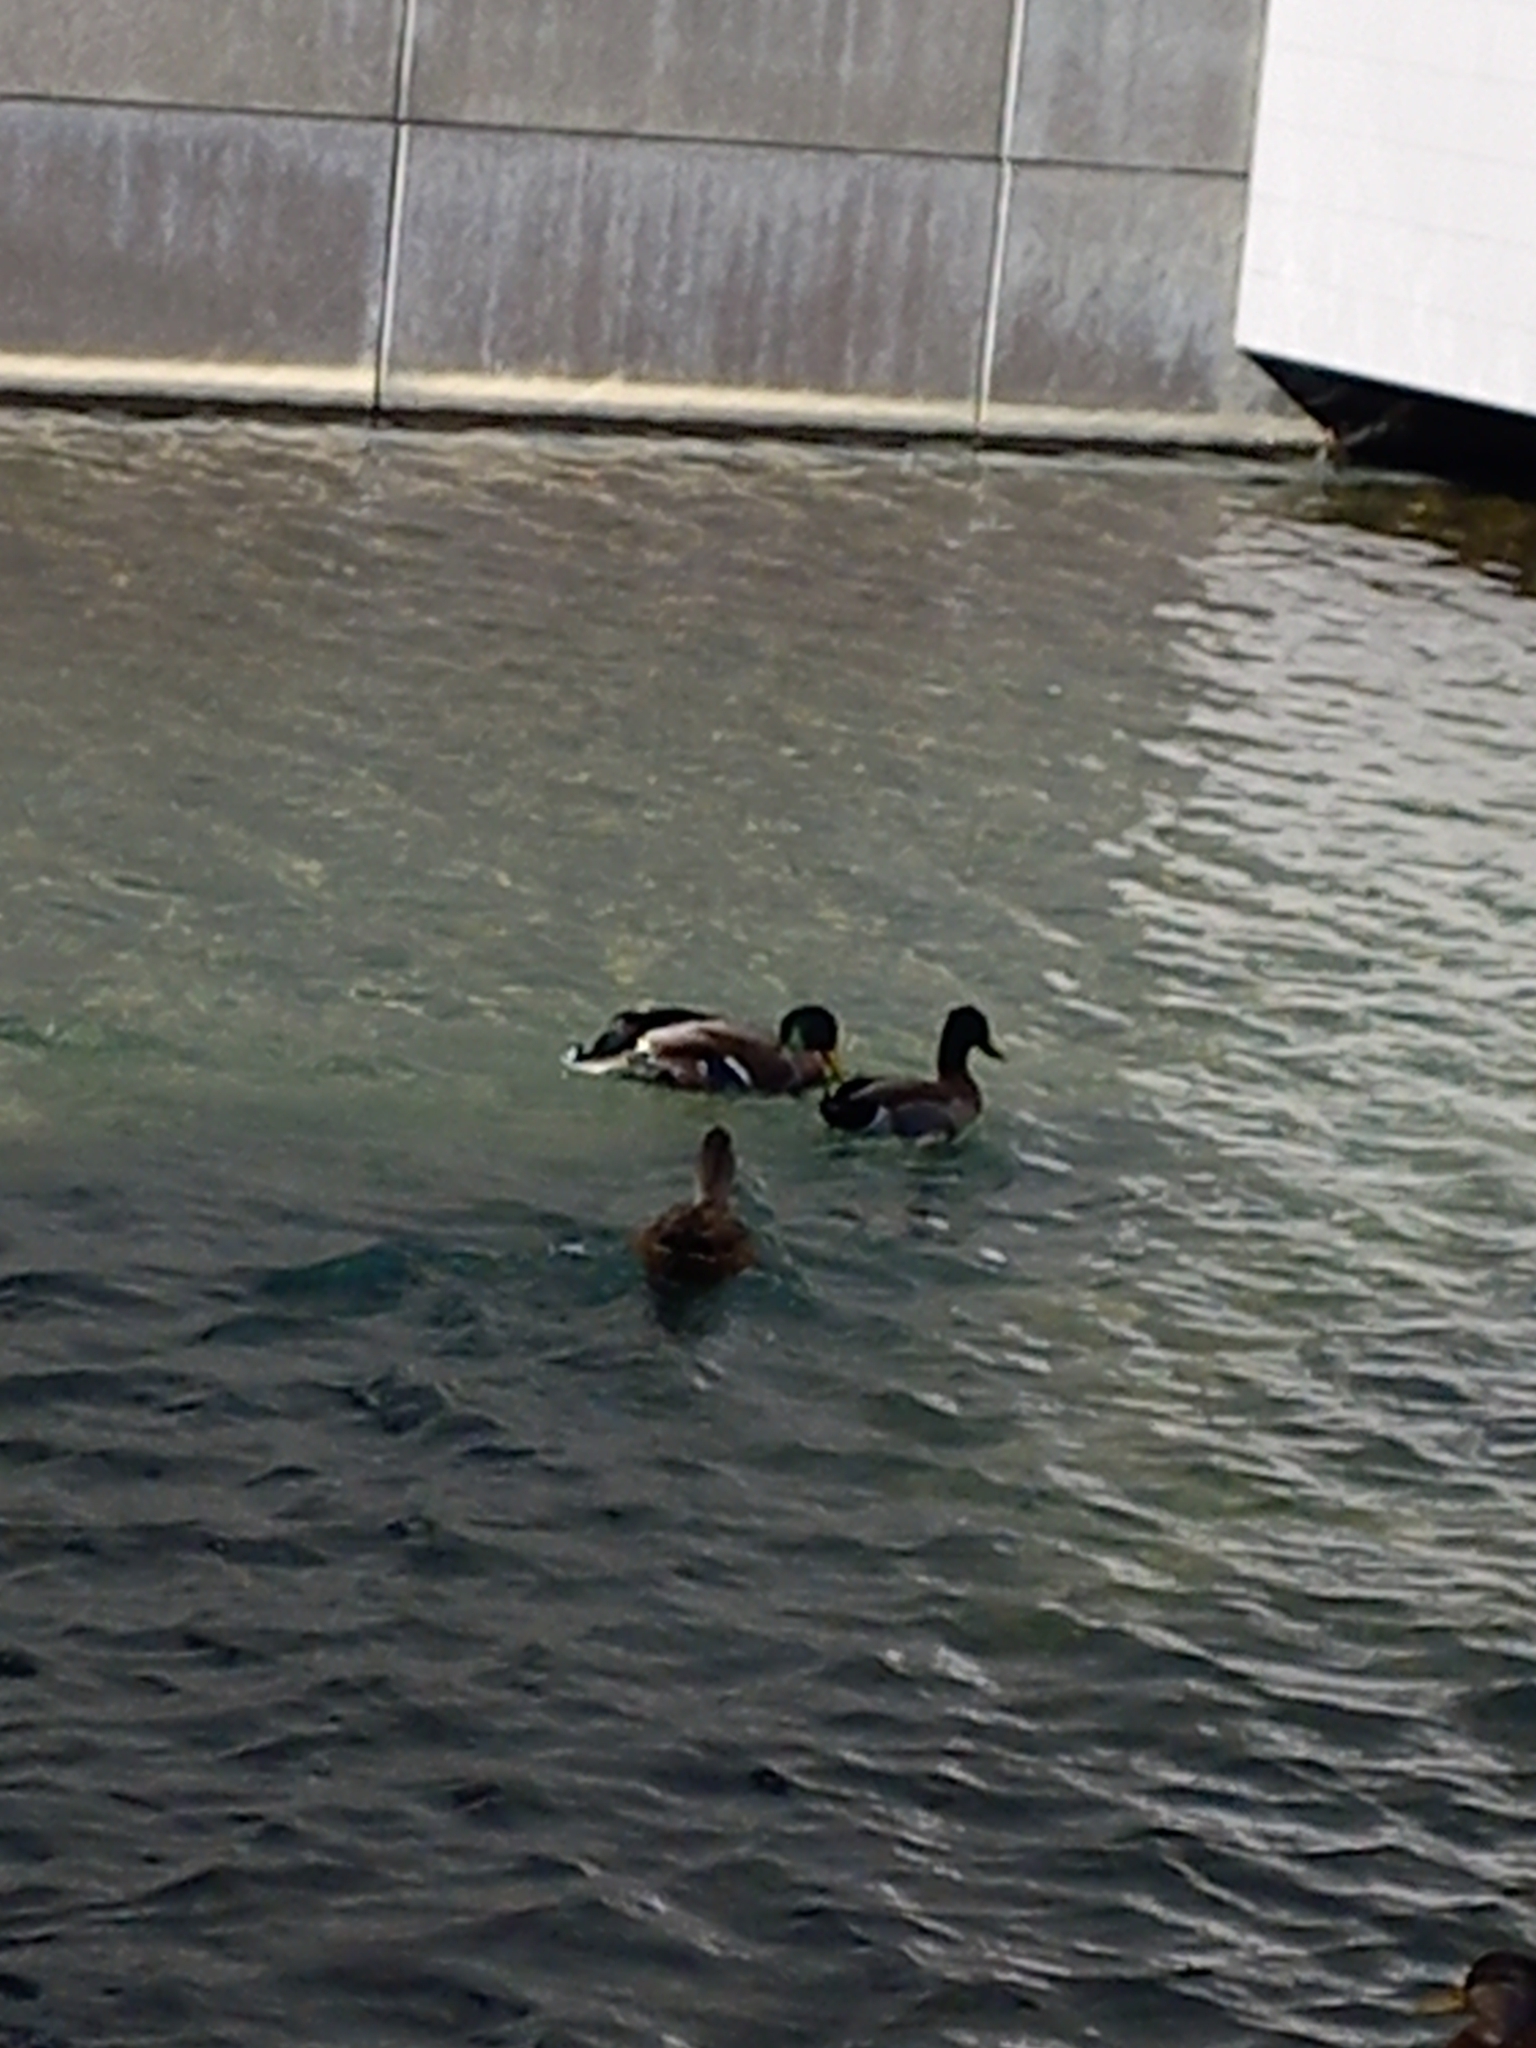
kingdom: Animalia
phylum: Chordata
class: Aves
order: Anseriformes
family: Anatidae
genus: Anas
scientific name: Anas platyrhynchos
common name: Mallard
